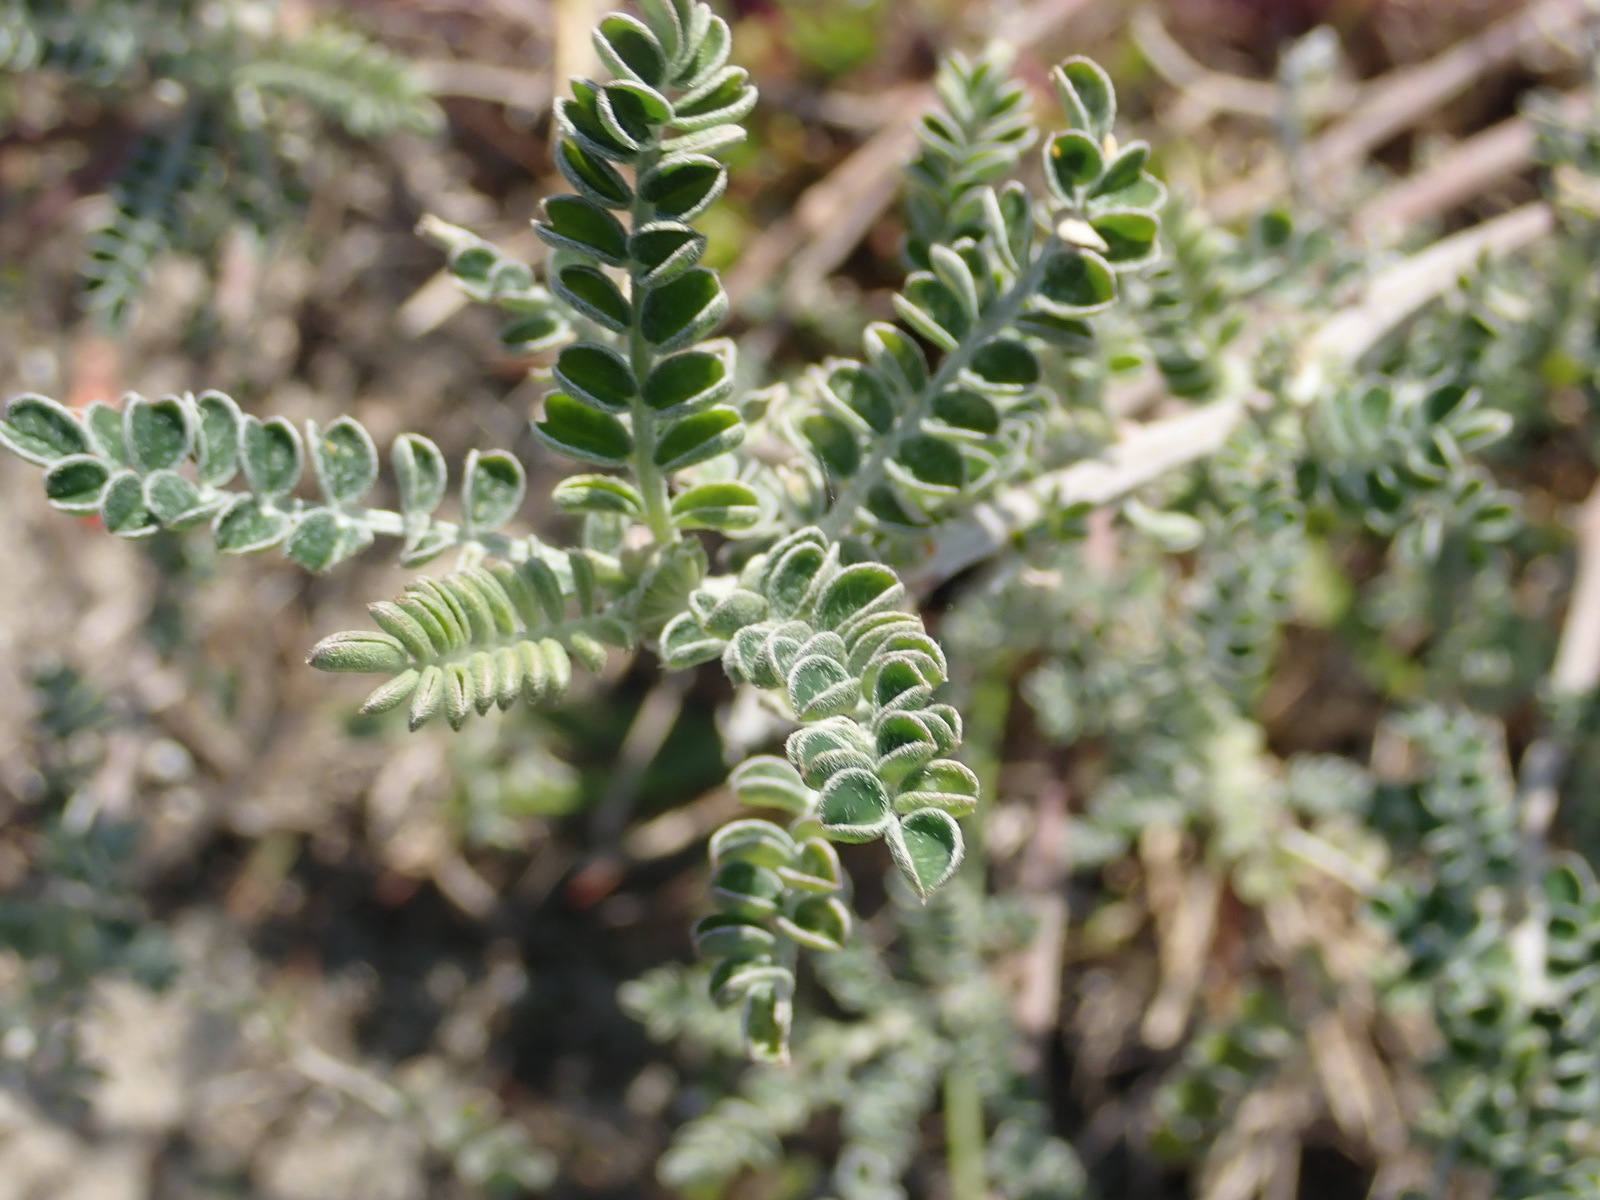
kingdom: Plantae
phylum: Tracheophyta
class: Magnoliopsida
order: Fabales
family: Fabaceae
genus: Lessertia
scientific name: Lessertia canescens
